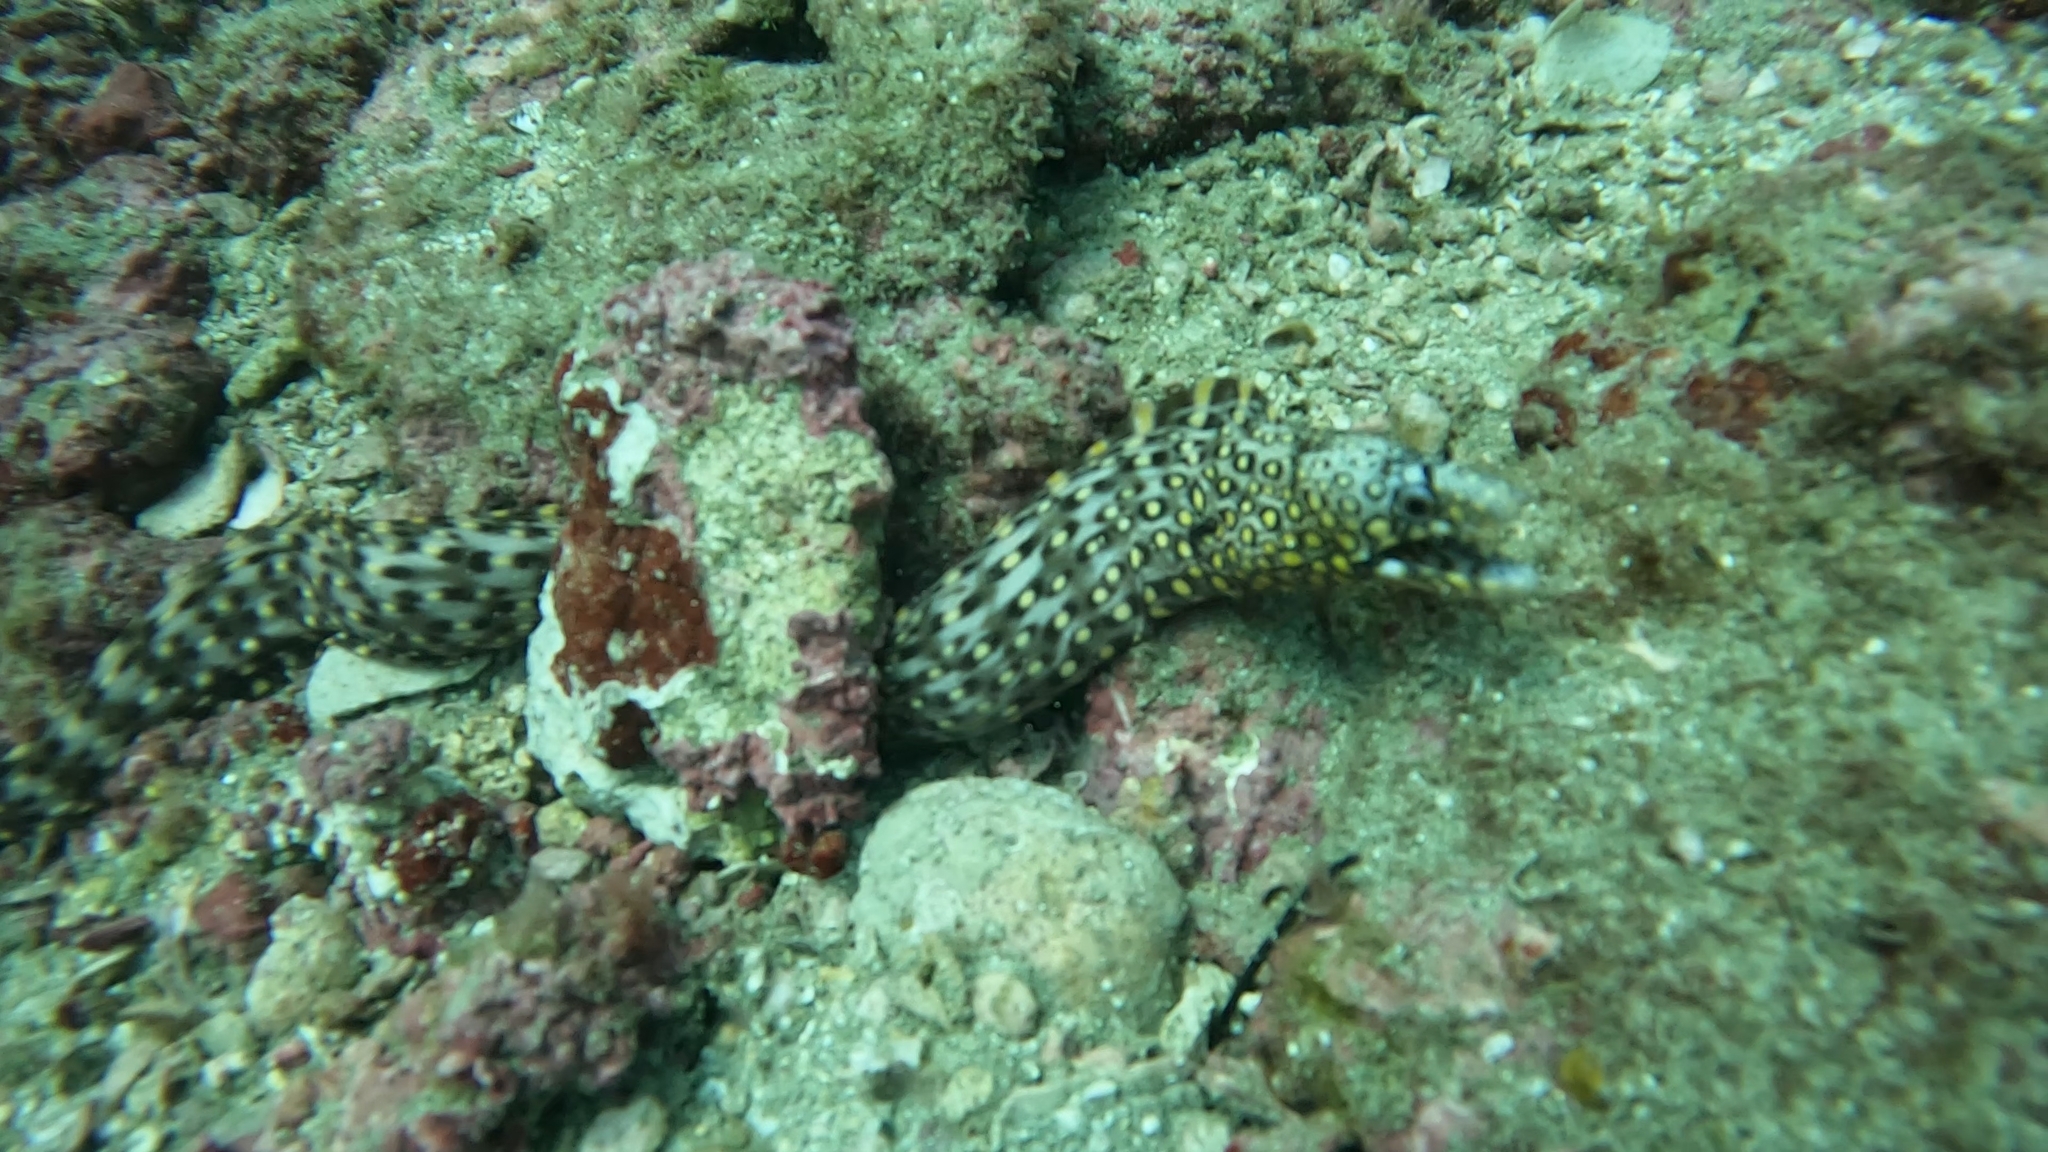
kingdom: Animalia
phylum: Chordata
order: Anguilliformes
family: Muraenidae
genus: Muraena
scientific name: Muraena lentiginosa
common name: Jewel moray
